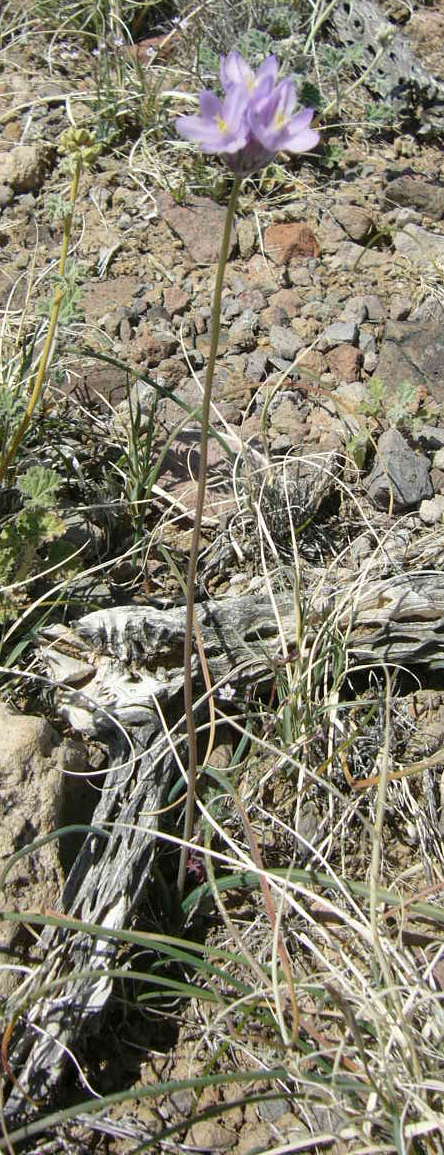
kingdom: Plantae
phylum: Tracheophyta
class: Liliopsida
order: Asparagales
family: Asparagaceae
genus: Dipterostemon
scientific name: Dipterostemon capitatus
